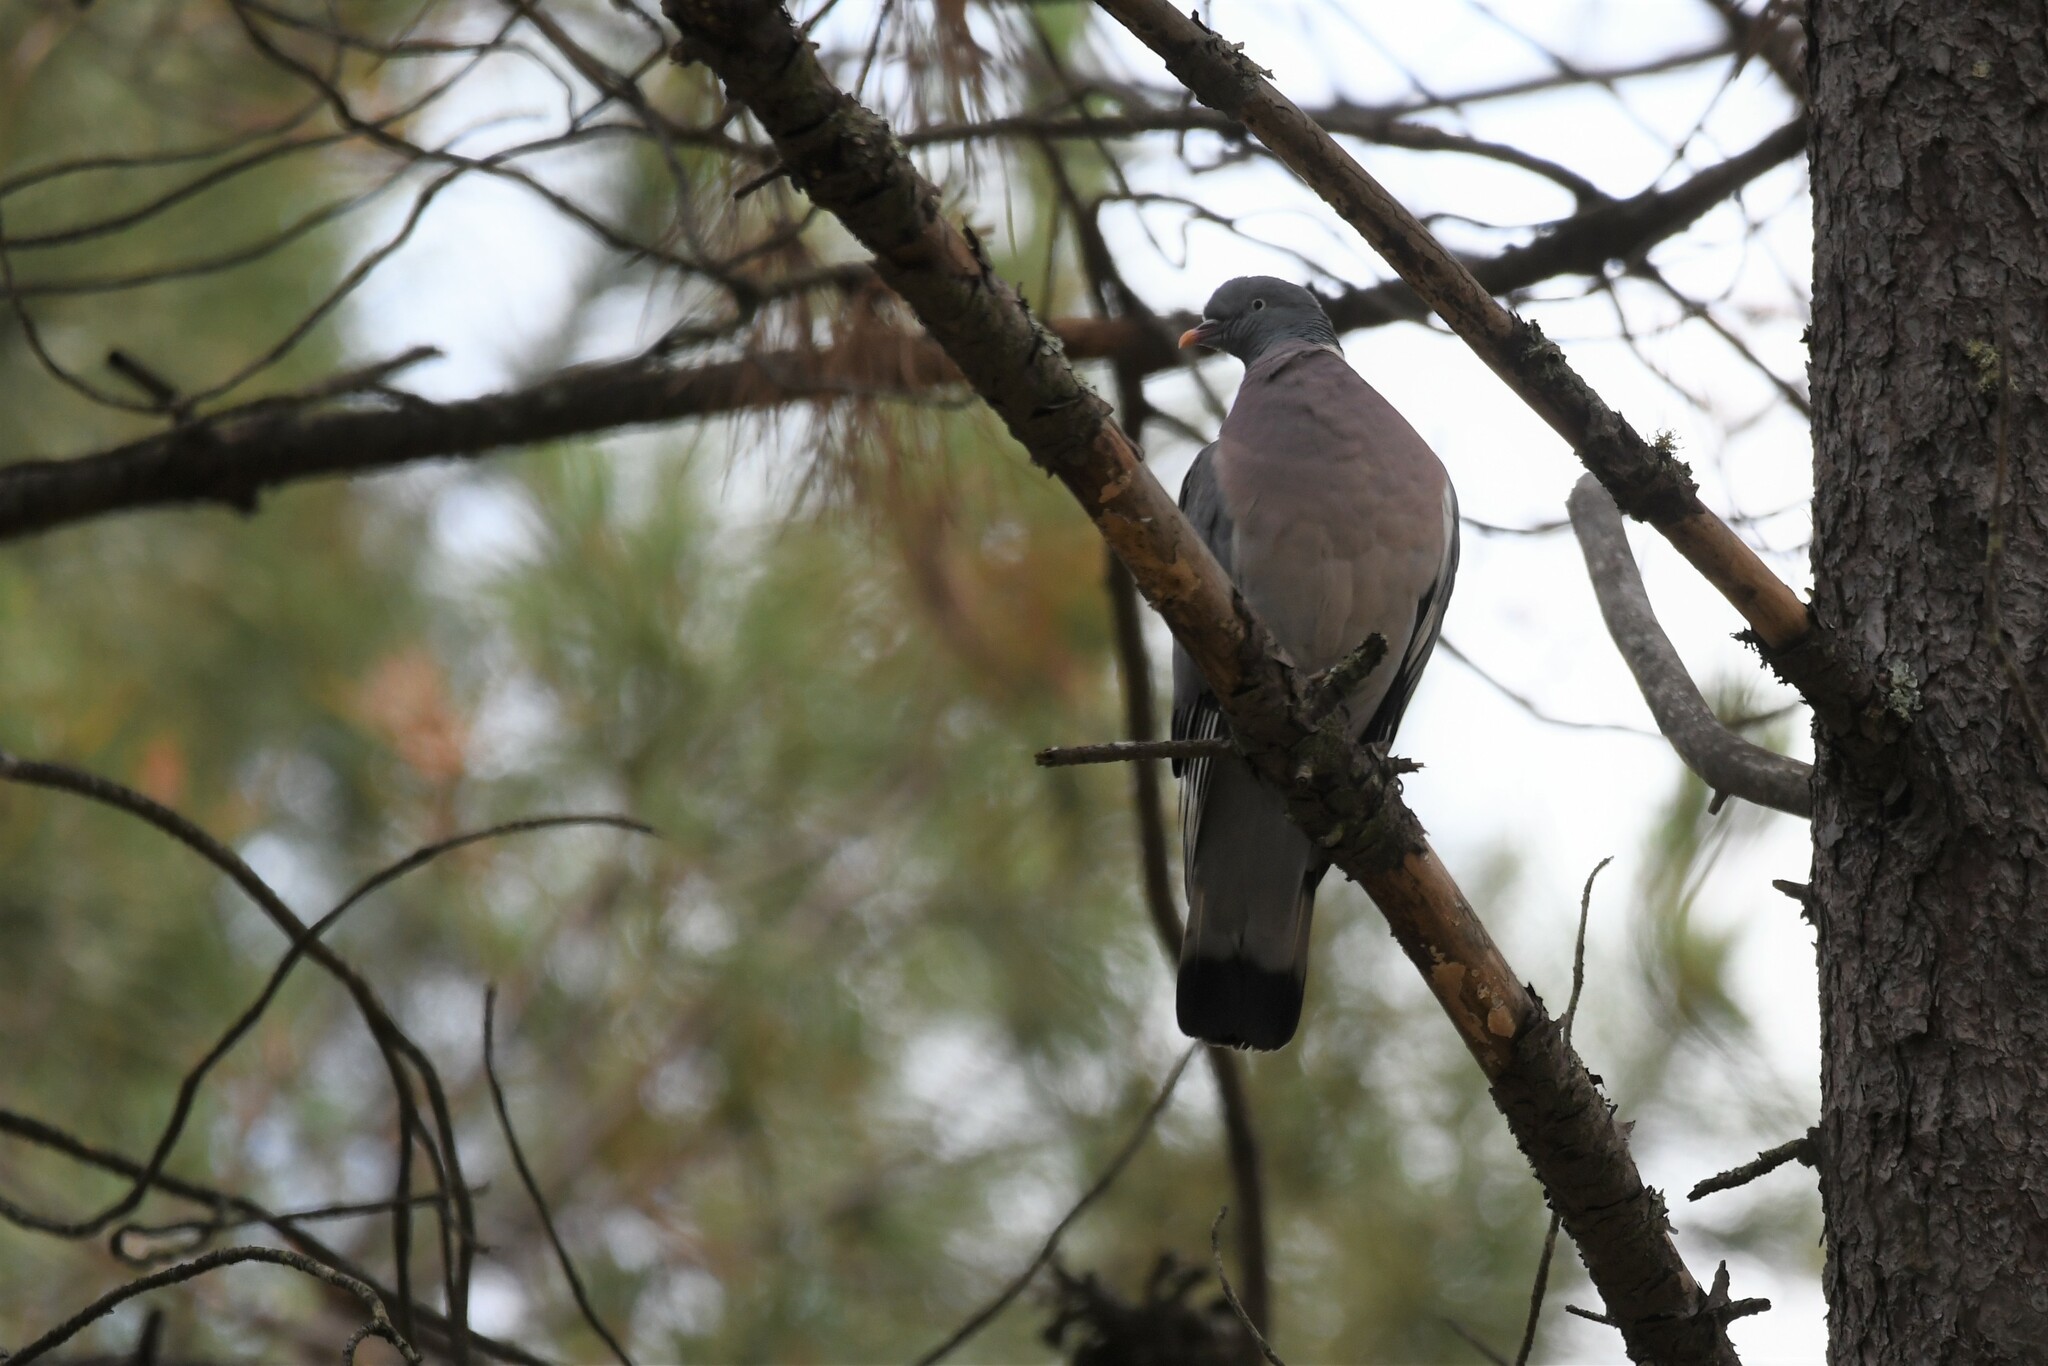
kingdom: Animalia
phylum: Chordata
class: Aves
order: Columbiformes
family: Columbidae
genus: Columba
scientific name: Columba palumbus
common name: Common wood pigeon
